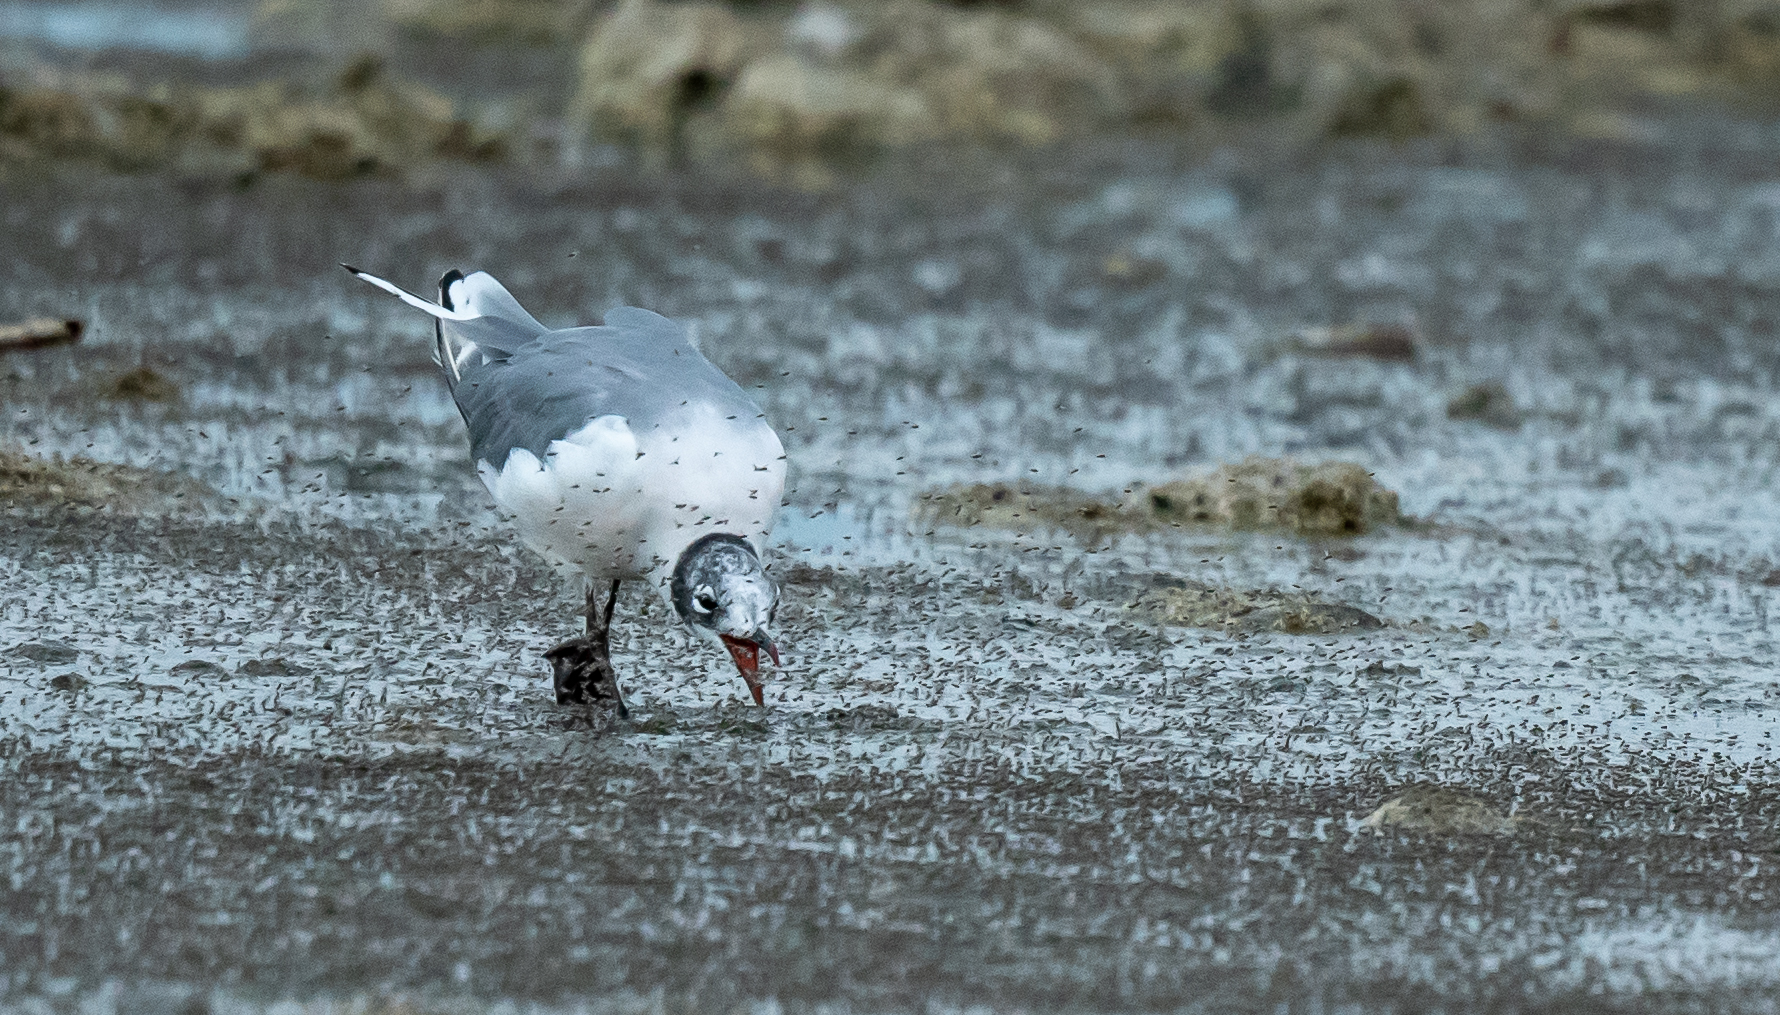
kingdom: Animalia
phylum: Chordata
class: Aves
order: Charadriiformes
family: Laridae
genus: Leucophaeus
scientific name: Leucophaeus pipixcan
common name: Franklin's gull
